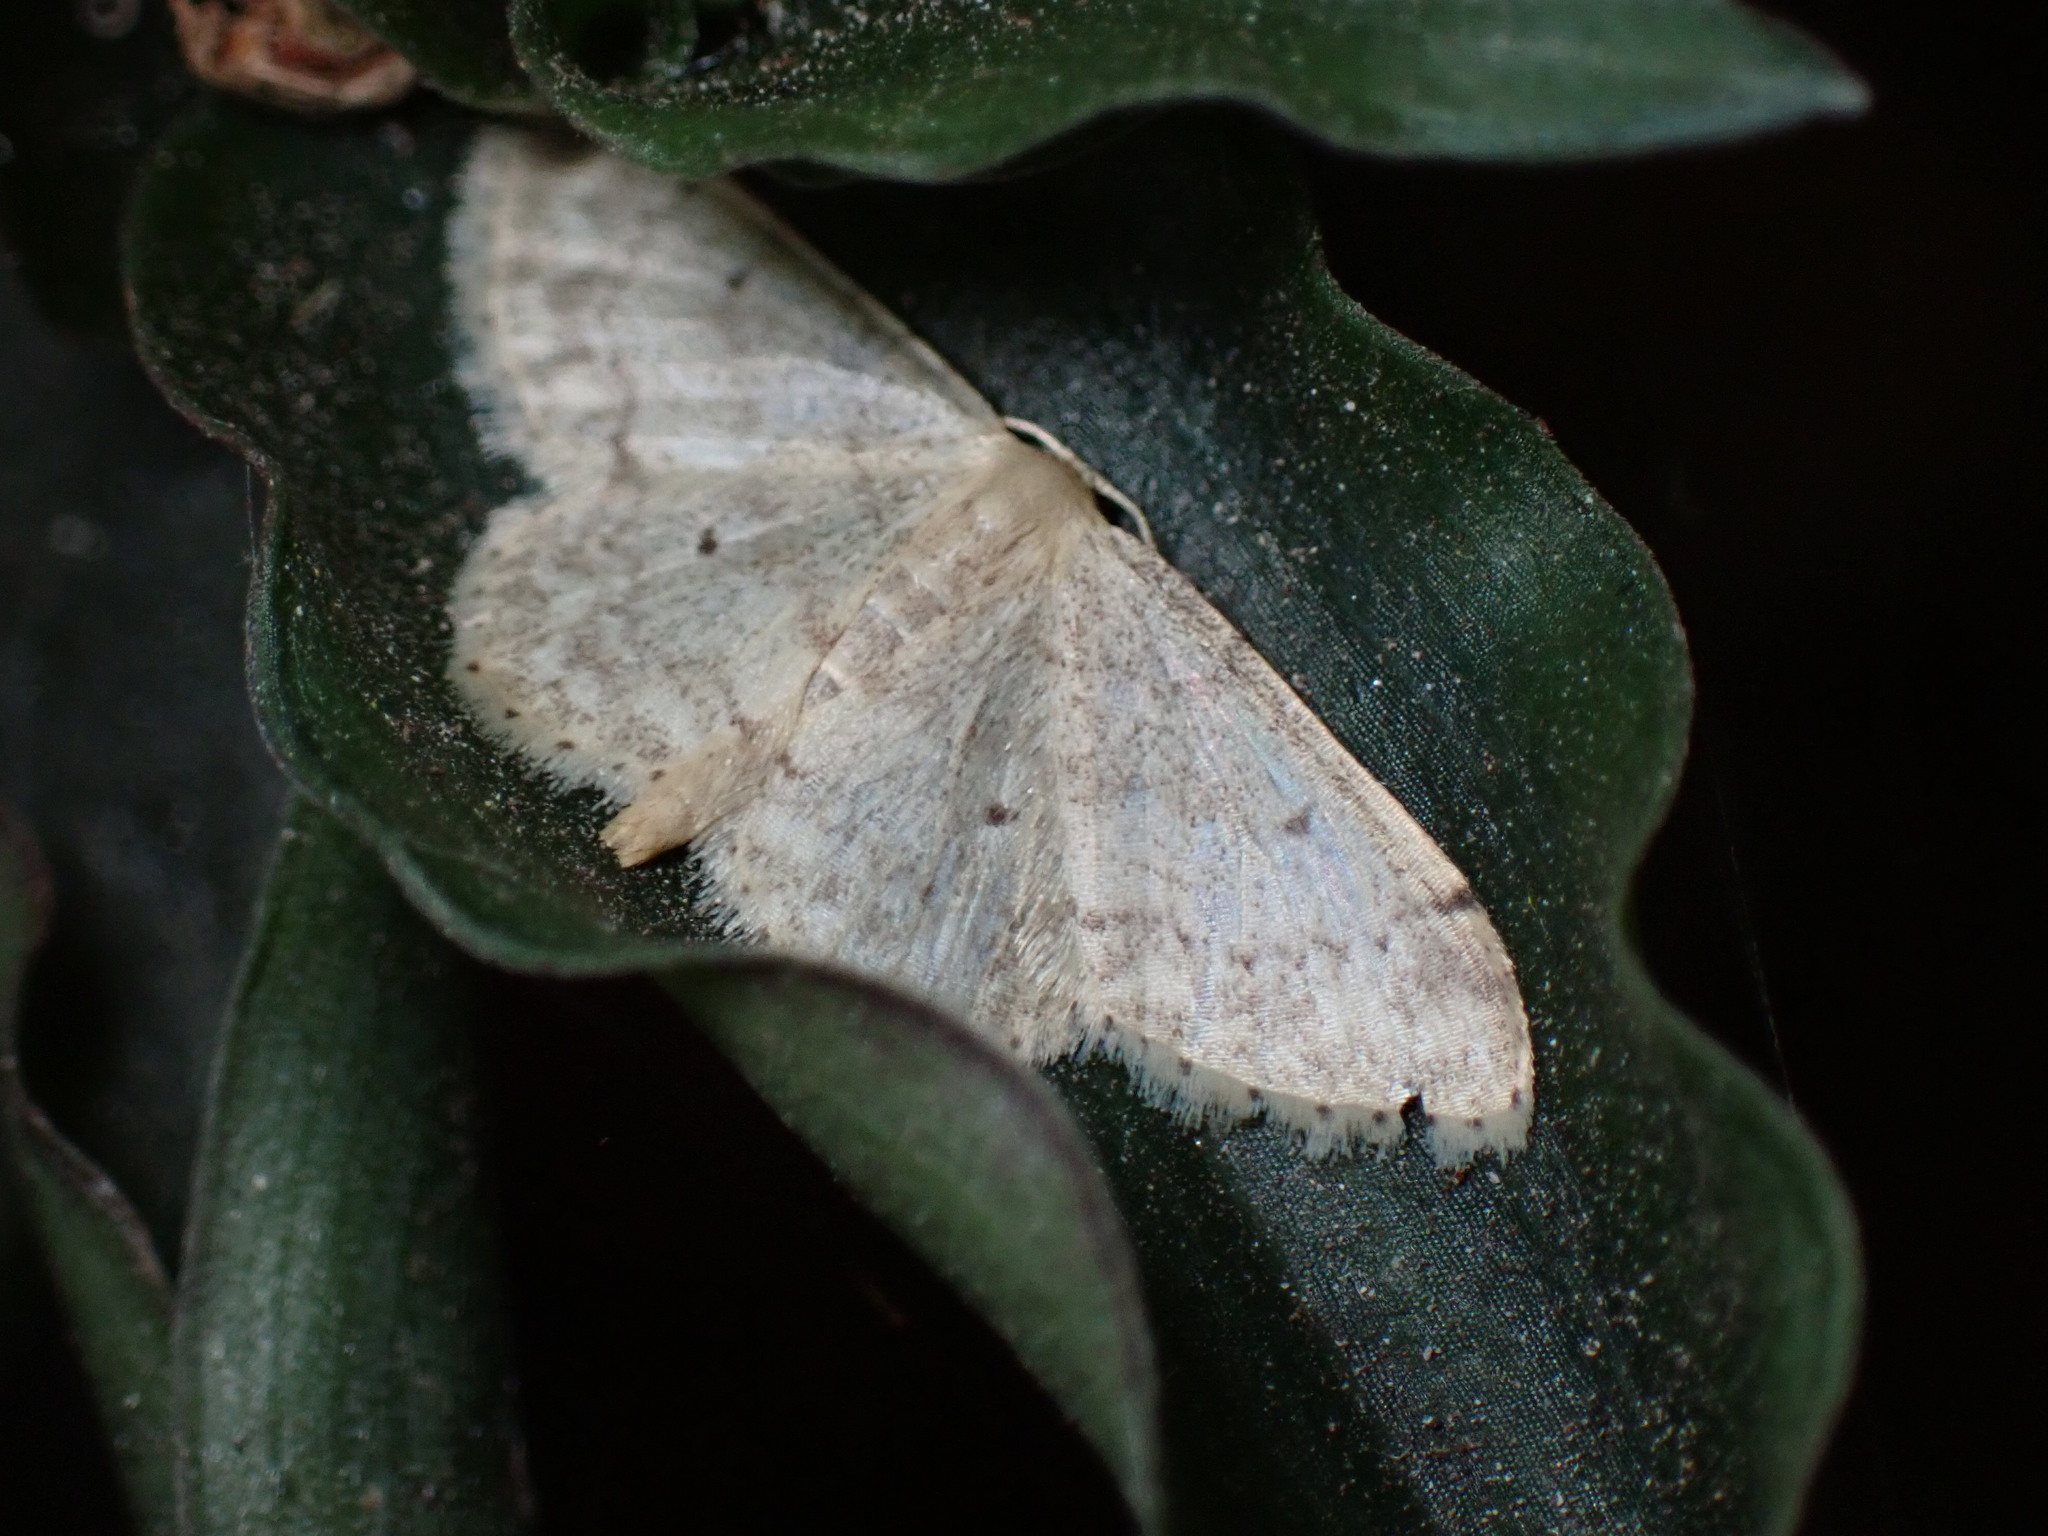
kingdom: Animalia
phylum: Arthropoda
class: Insecta
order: Lepidoptera
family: Geometridae
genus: Idaea
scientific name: Idaea biselata
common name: Small fan-footed wave
